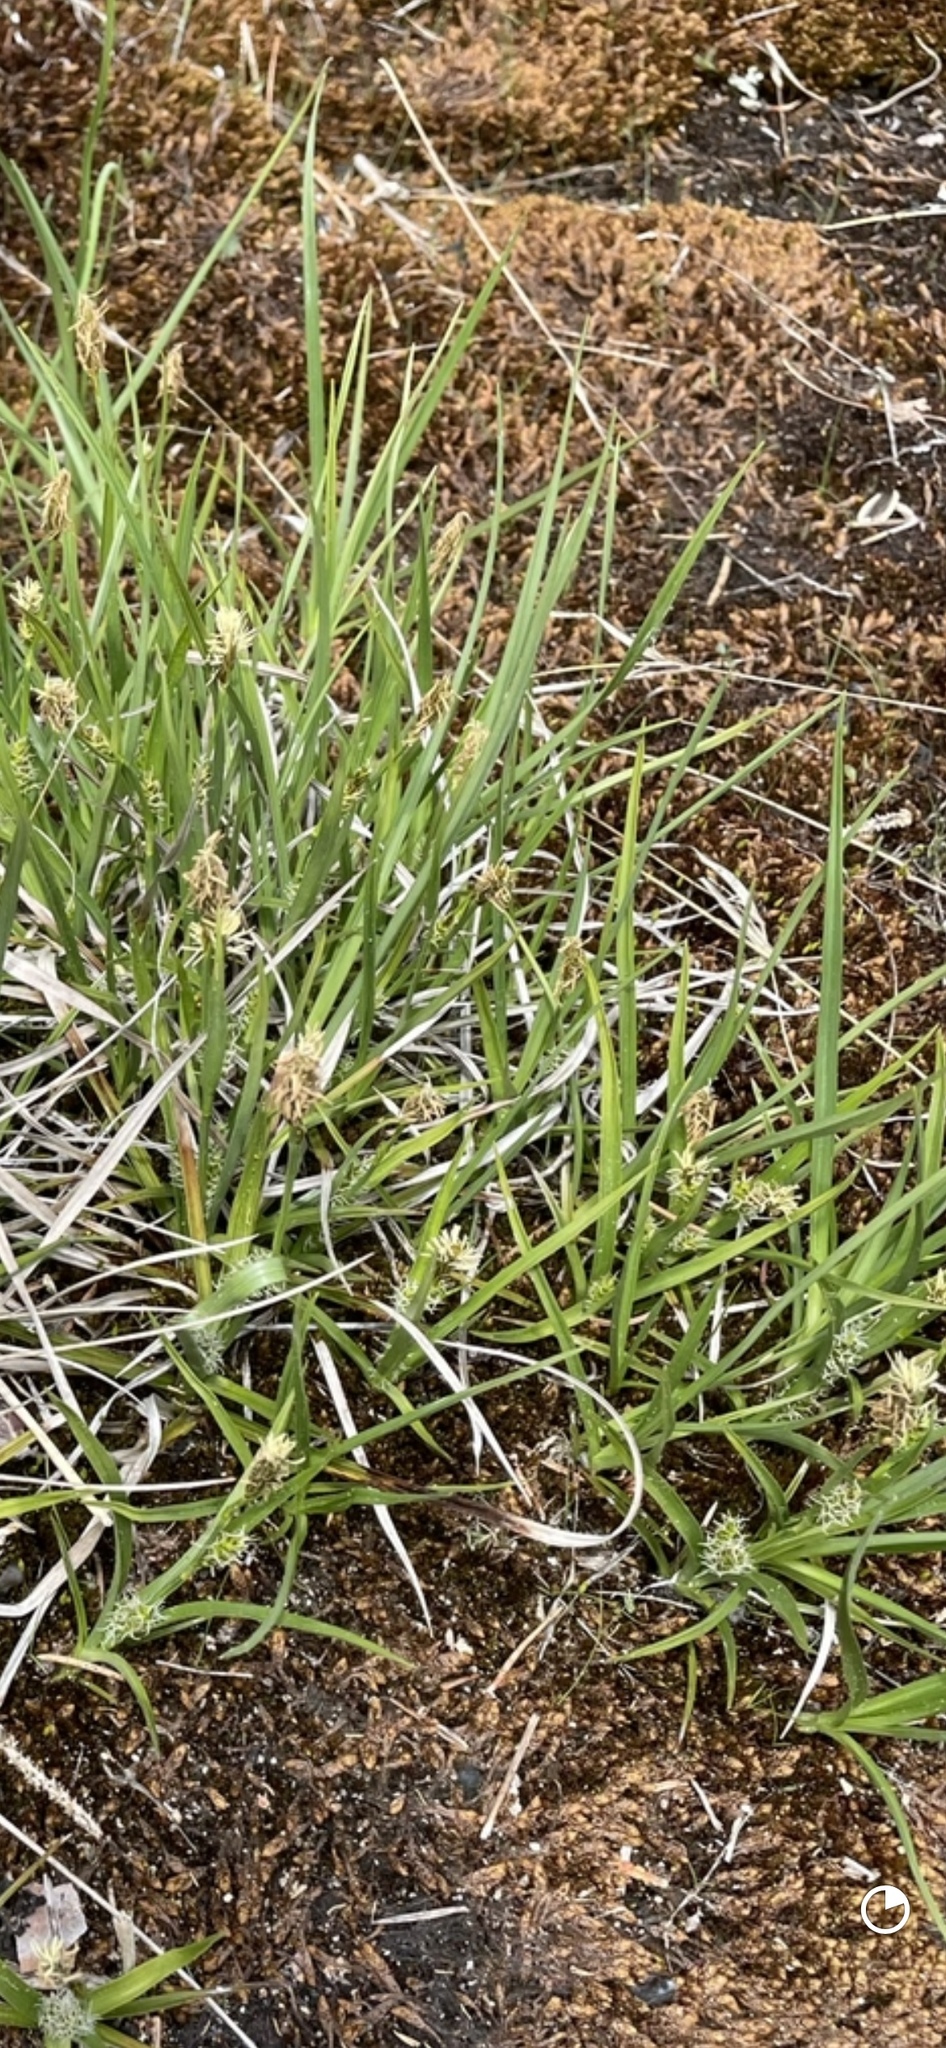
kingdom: Plantae
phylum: Tracheophyta
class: Liliopsida
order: Poales
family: Cyperaceae
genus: Carex
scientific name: Carex crawei
